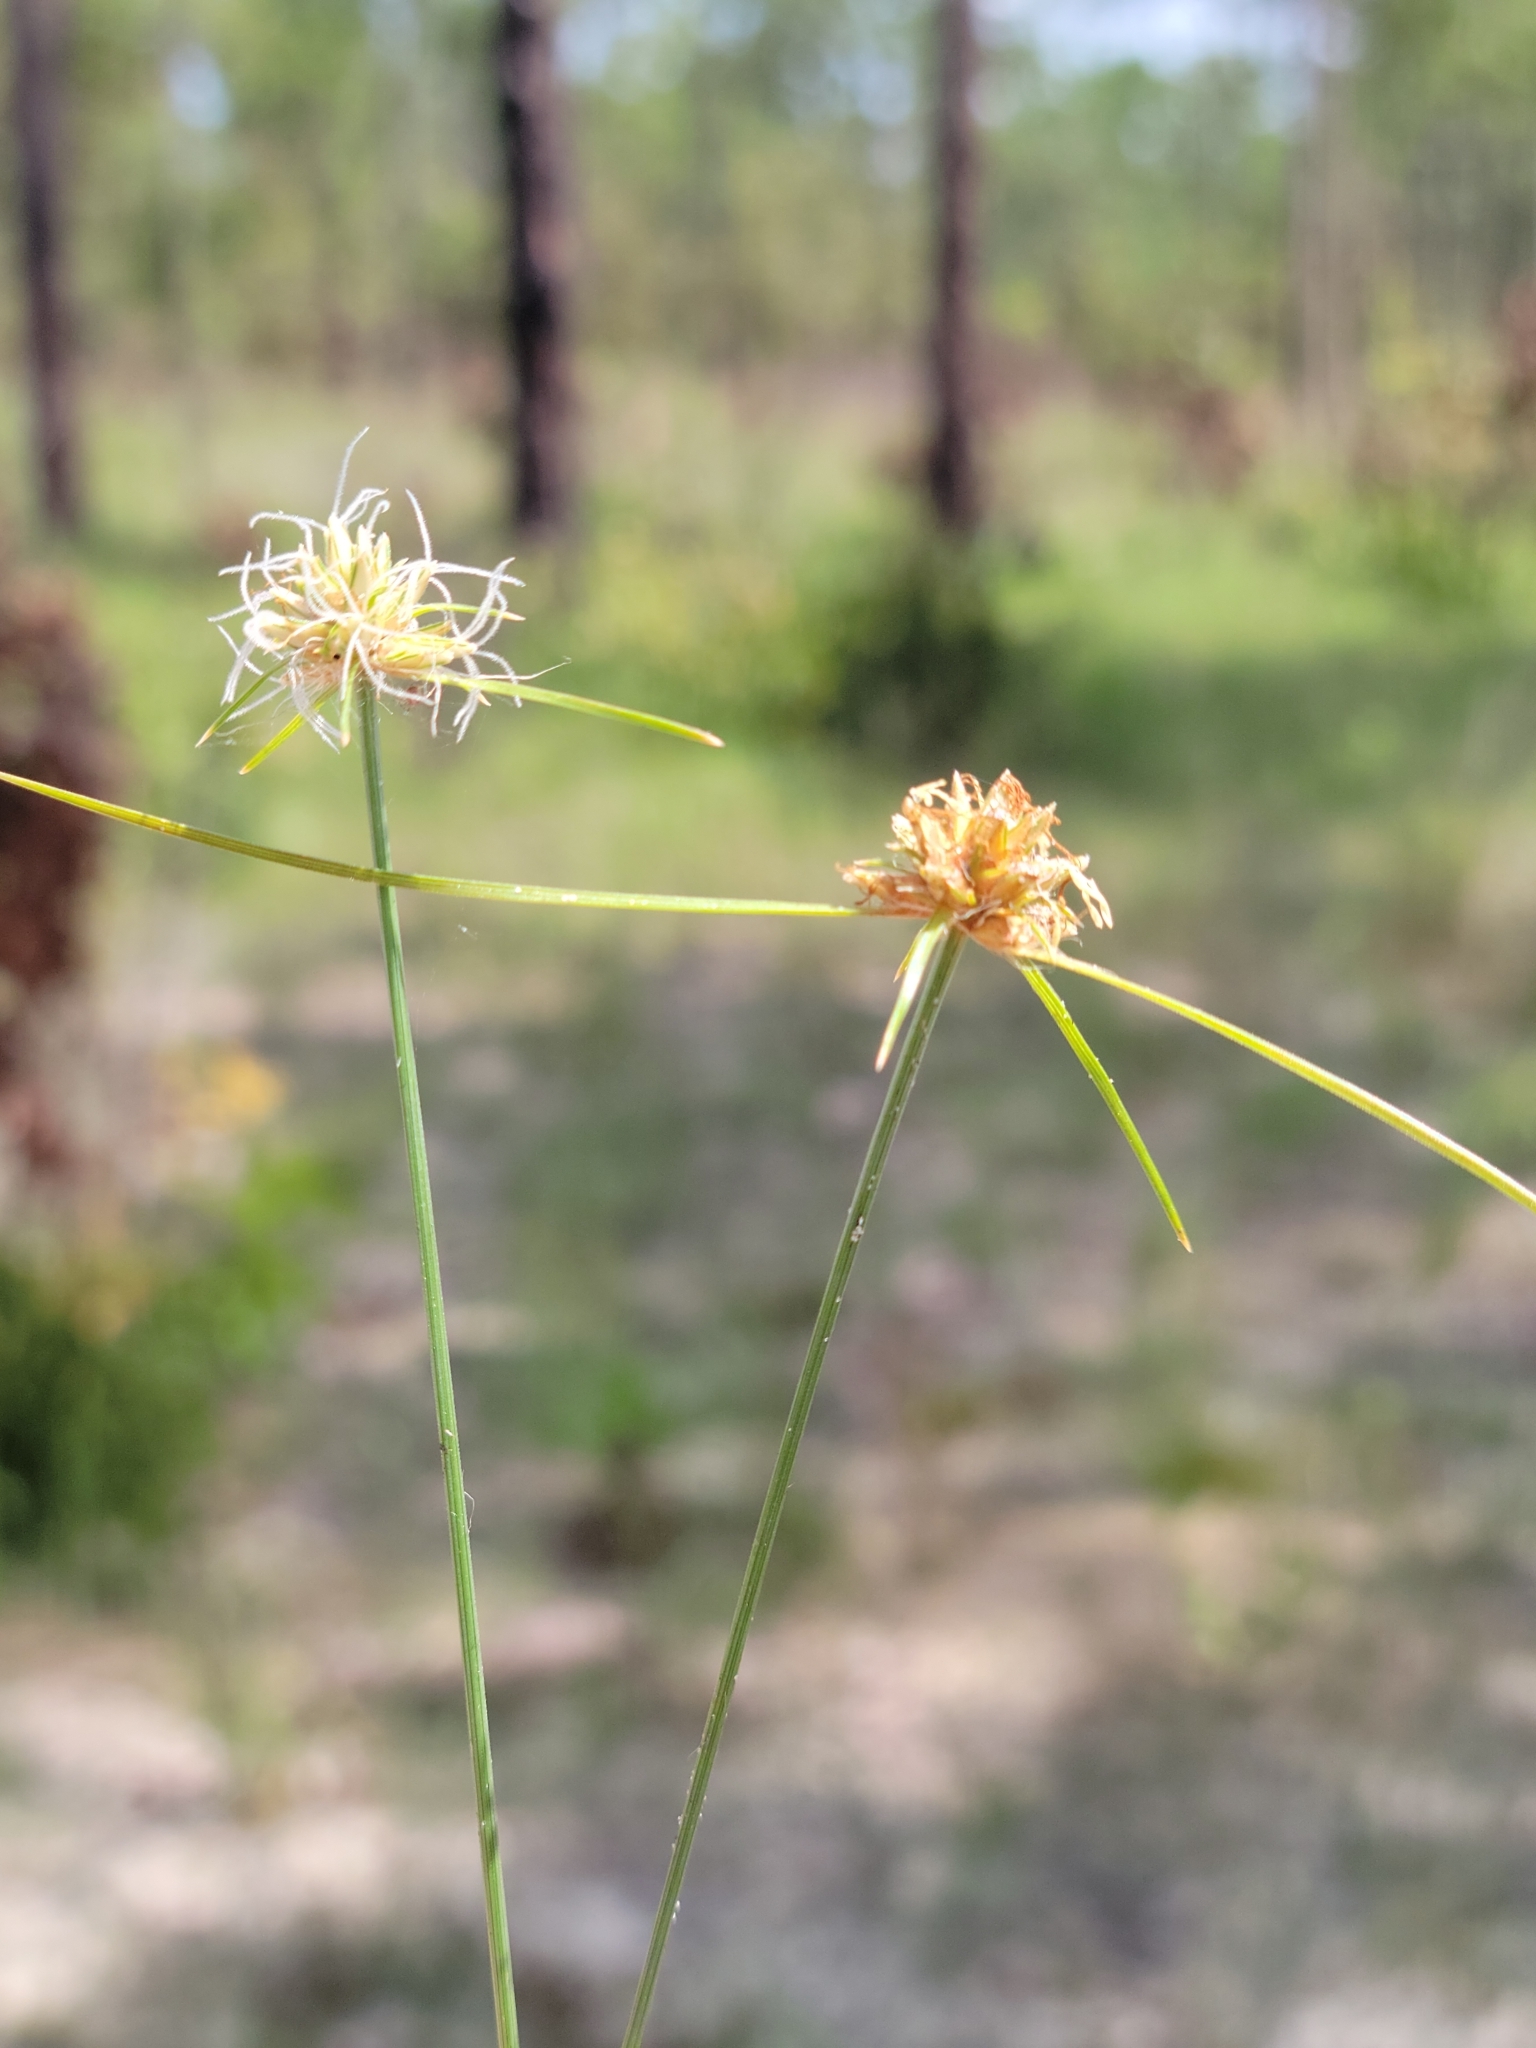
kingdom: Plantae
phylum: Tracheophyta
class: Liliopsida
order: Poales
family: Cyperaceae
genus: Bulbostylis
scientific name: Bulbostylis warei
